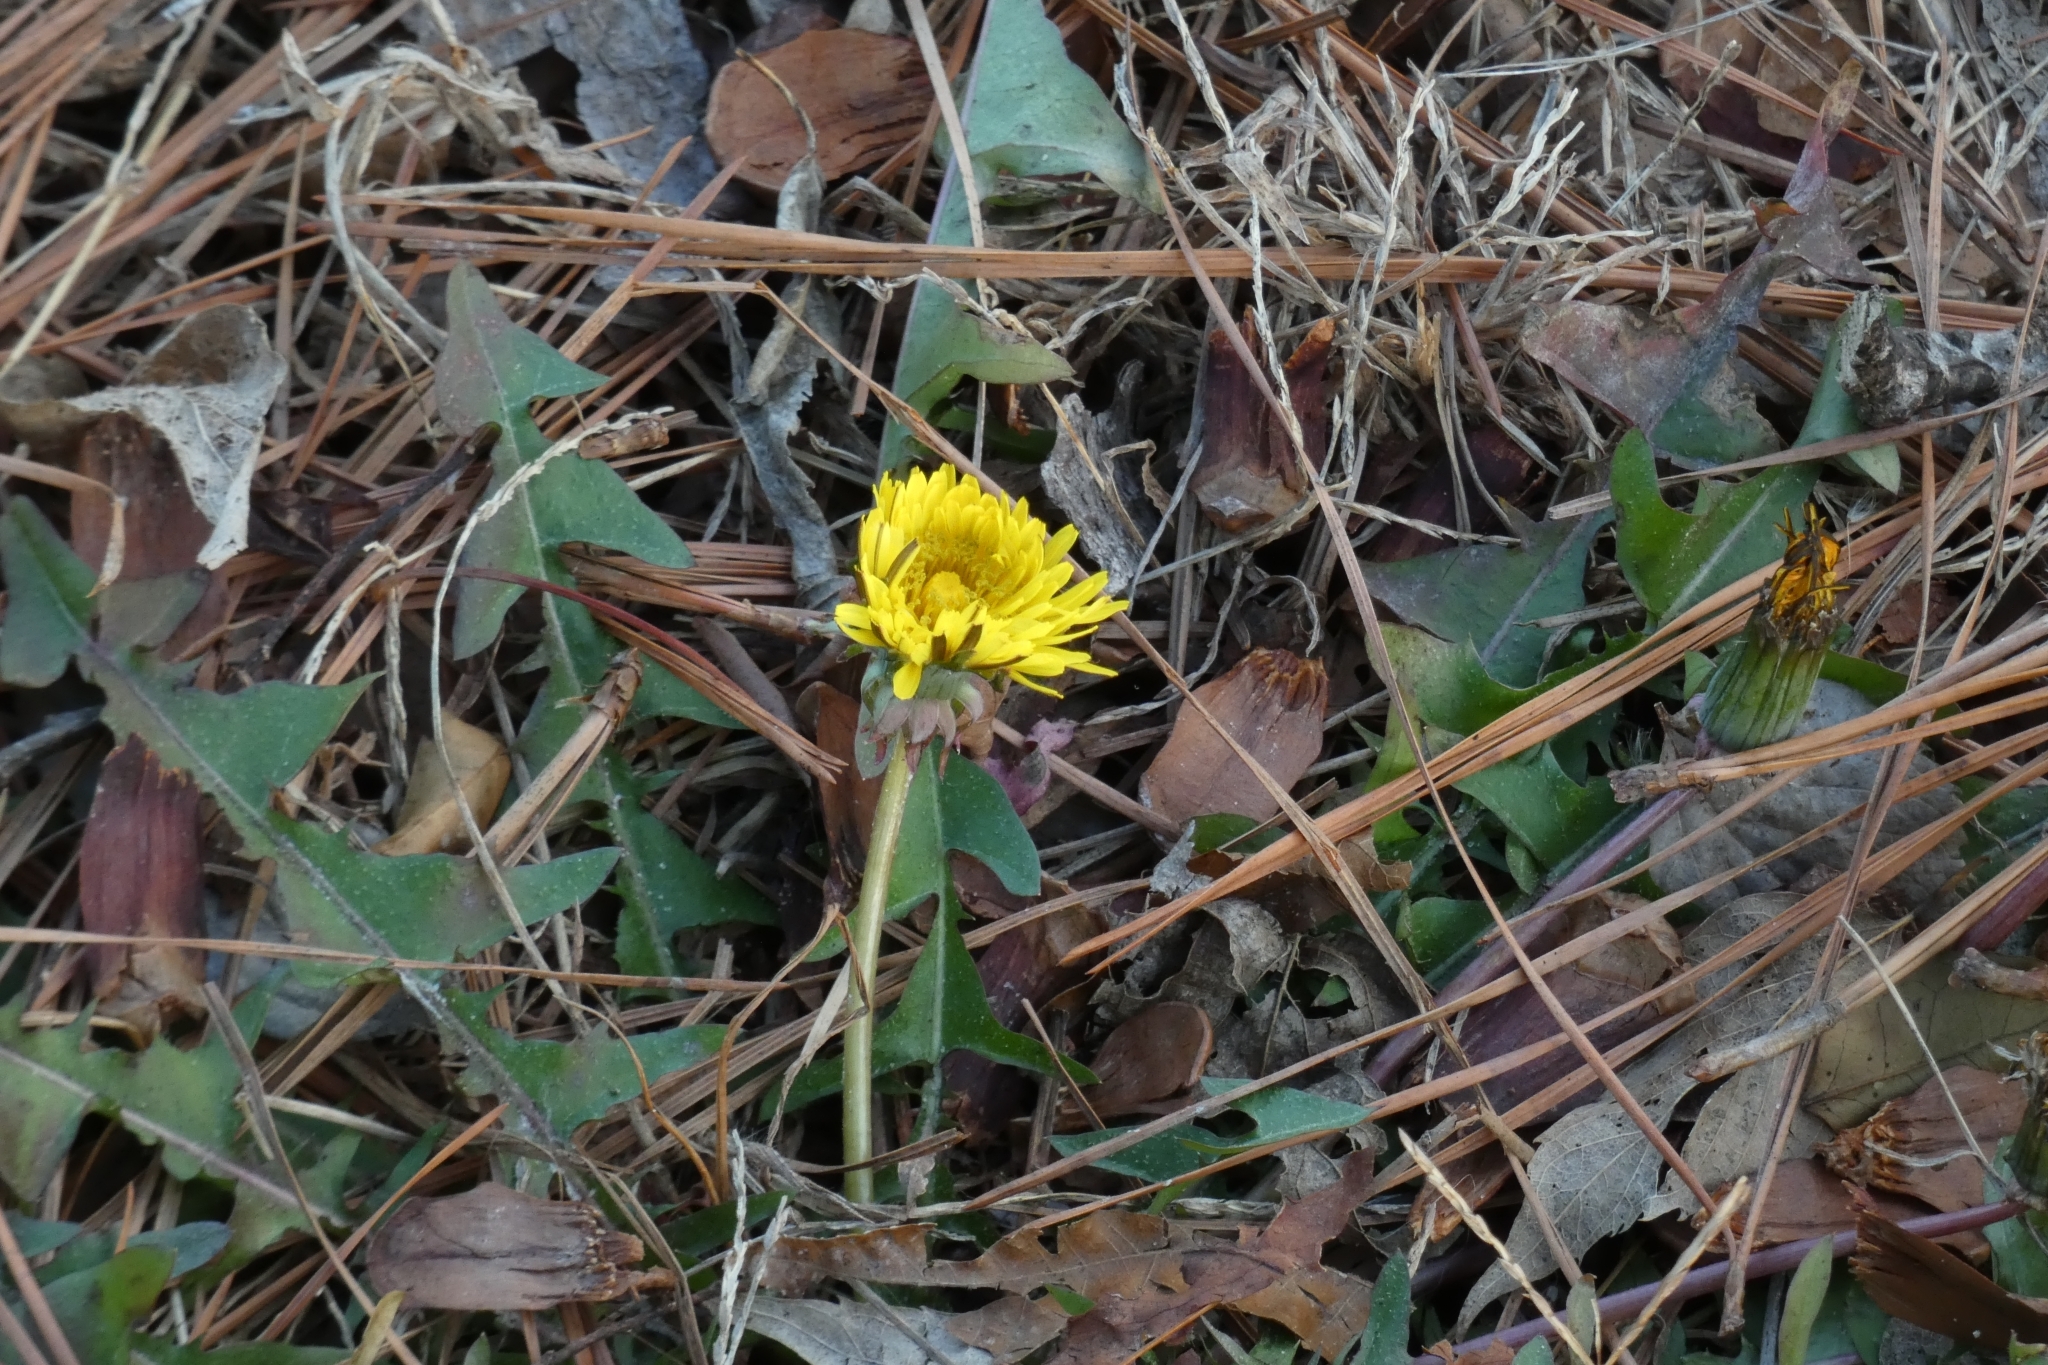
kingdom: Plantae
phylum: Tracheophyta
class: Magnoliopsida
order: Asterales
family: Asteraceae
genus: Taraxacum
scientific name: Taraxacum
